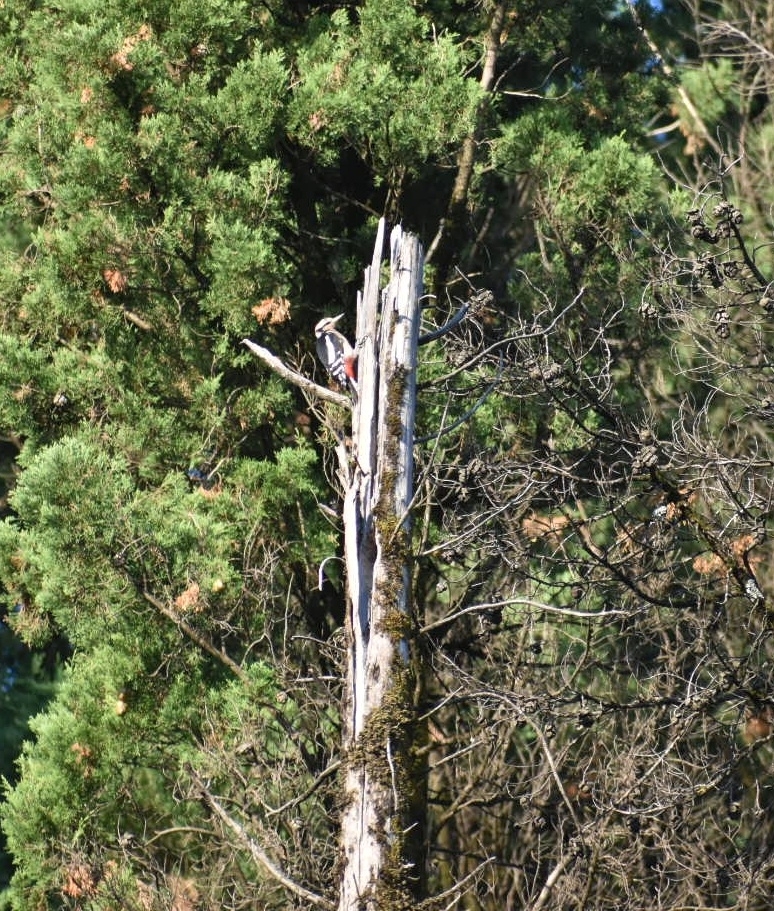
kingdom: Animalia
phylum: Chordata
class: Aves
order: Piciformes
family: Picidae
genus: Dendrocopos
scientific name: Dendrocopos syriacus
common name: Syrian woodpecker
